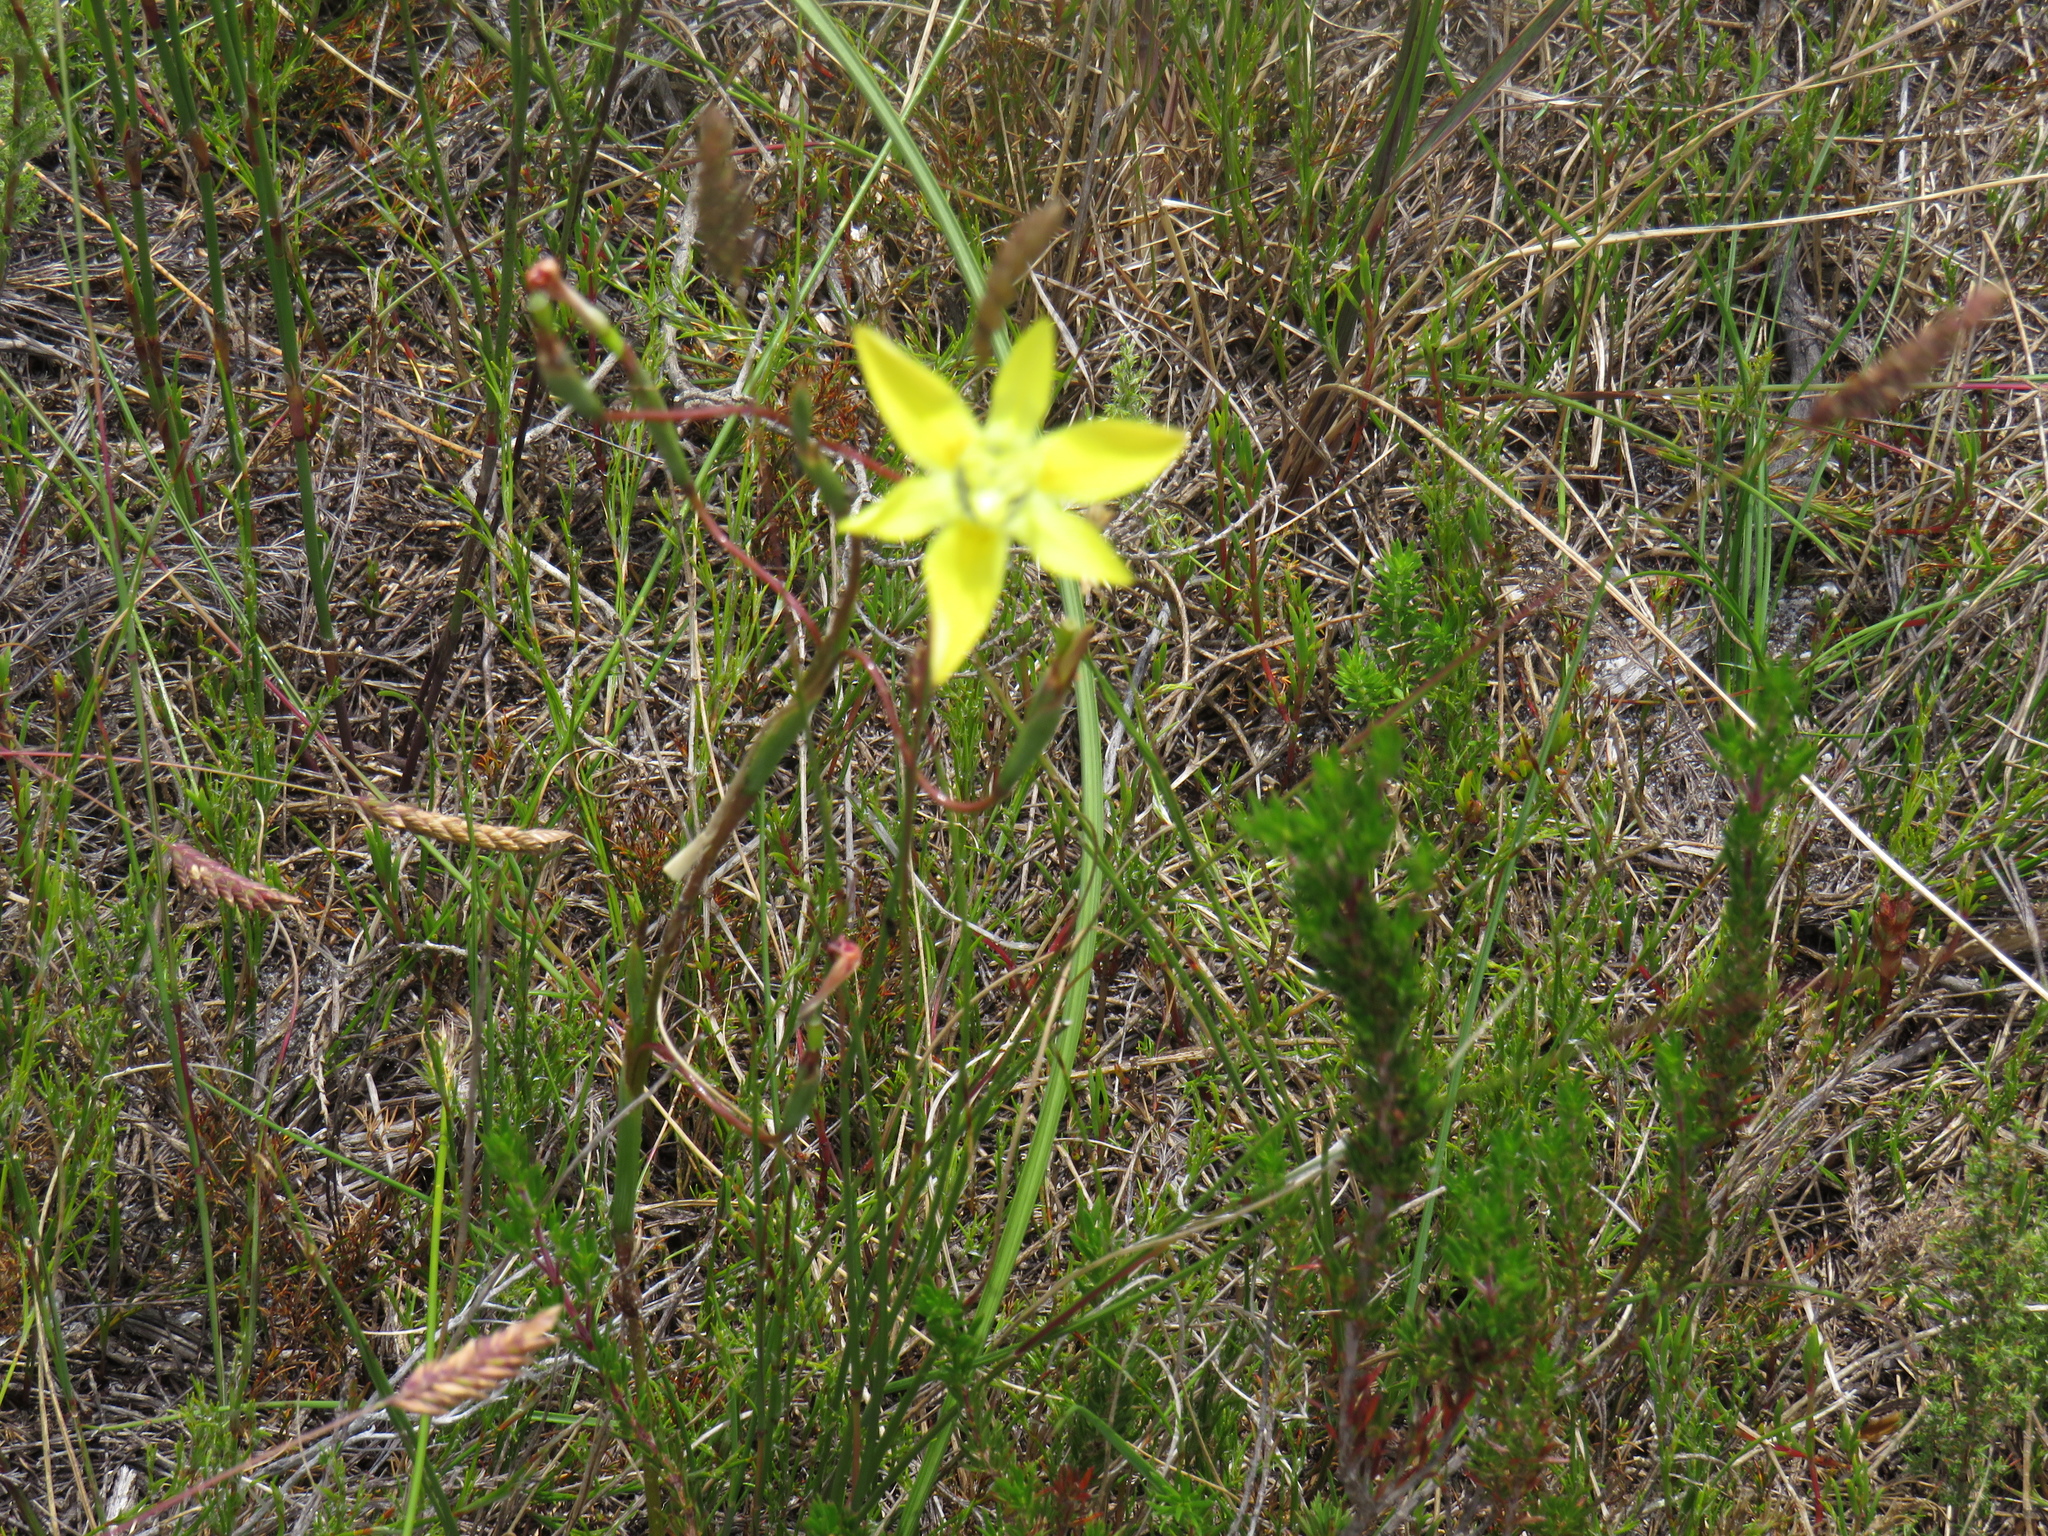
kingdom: Plantae
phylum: Tracheophyta
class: Liliopsida
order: Asparagales
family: Iridaceae
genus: Moraea
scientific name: Moraea bituminosa
